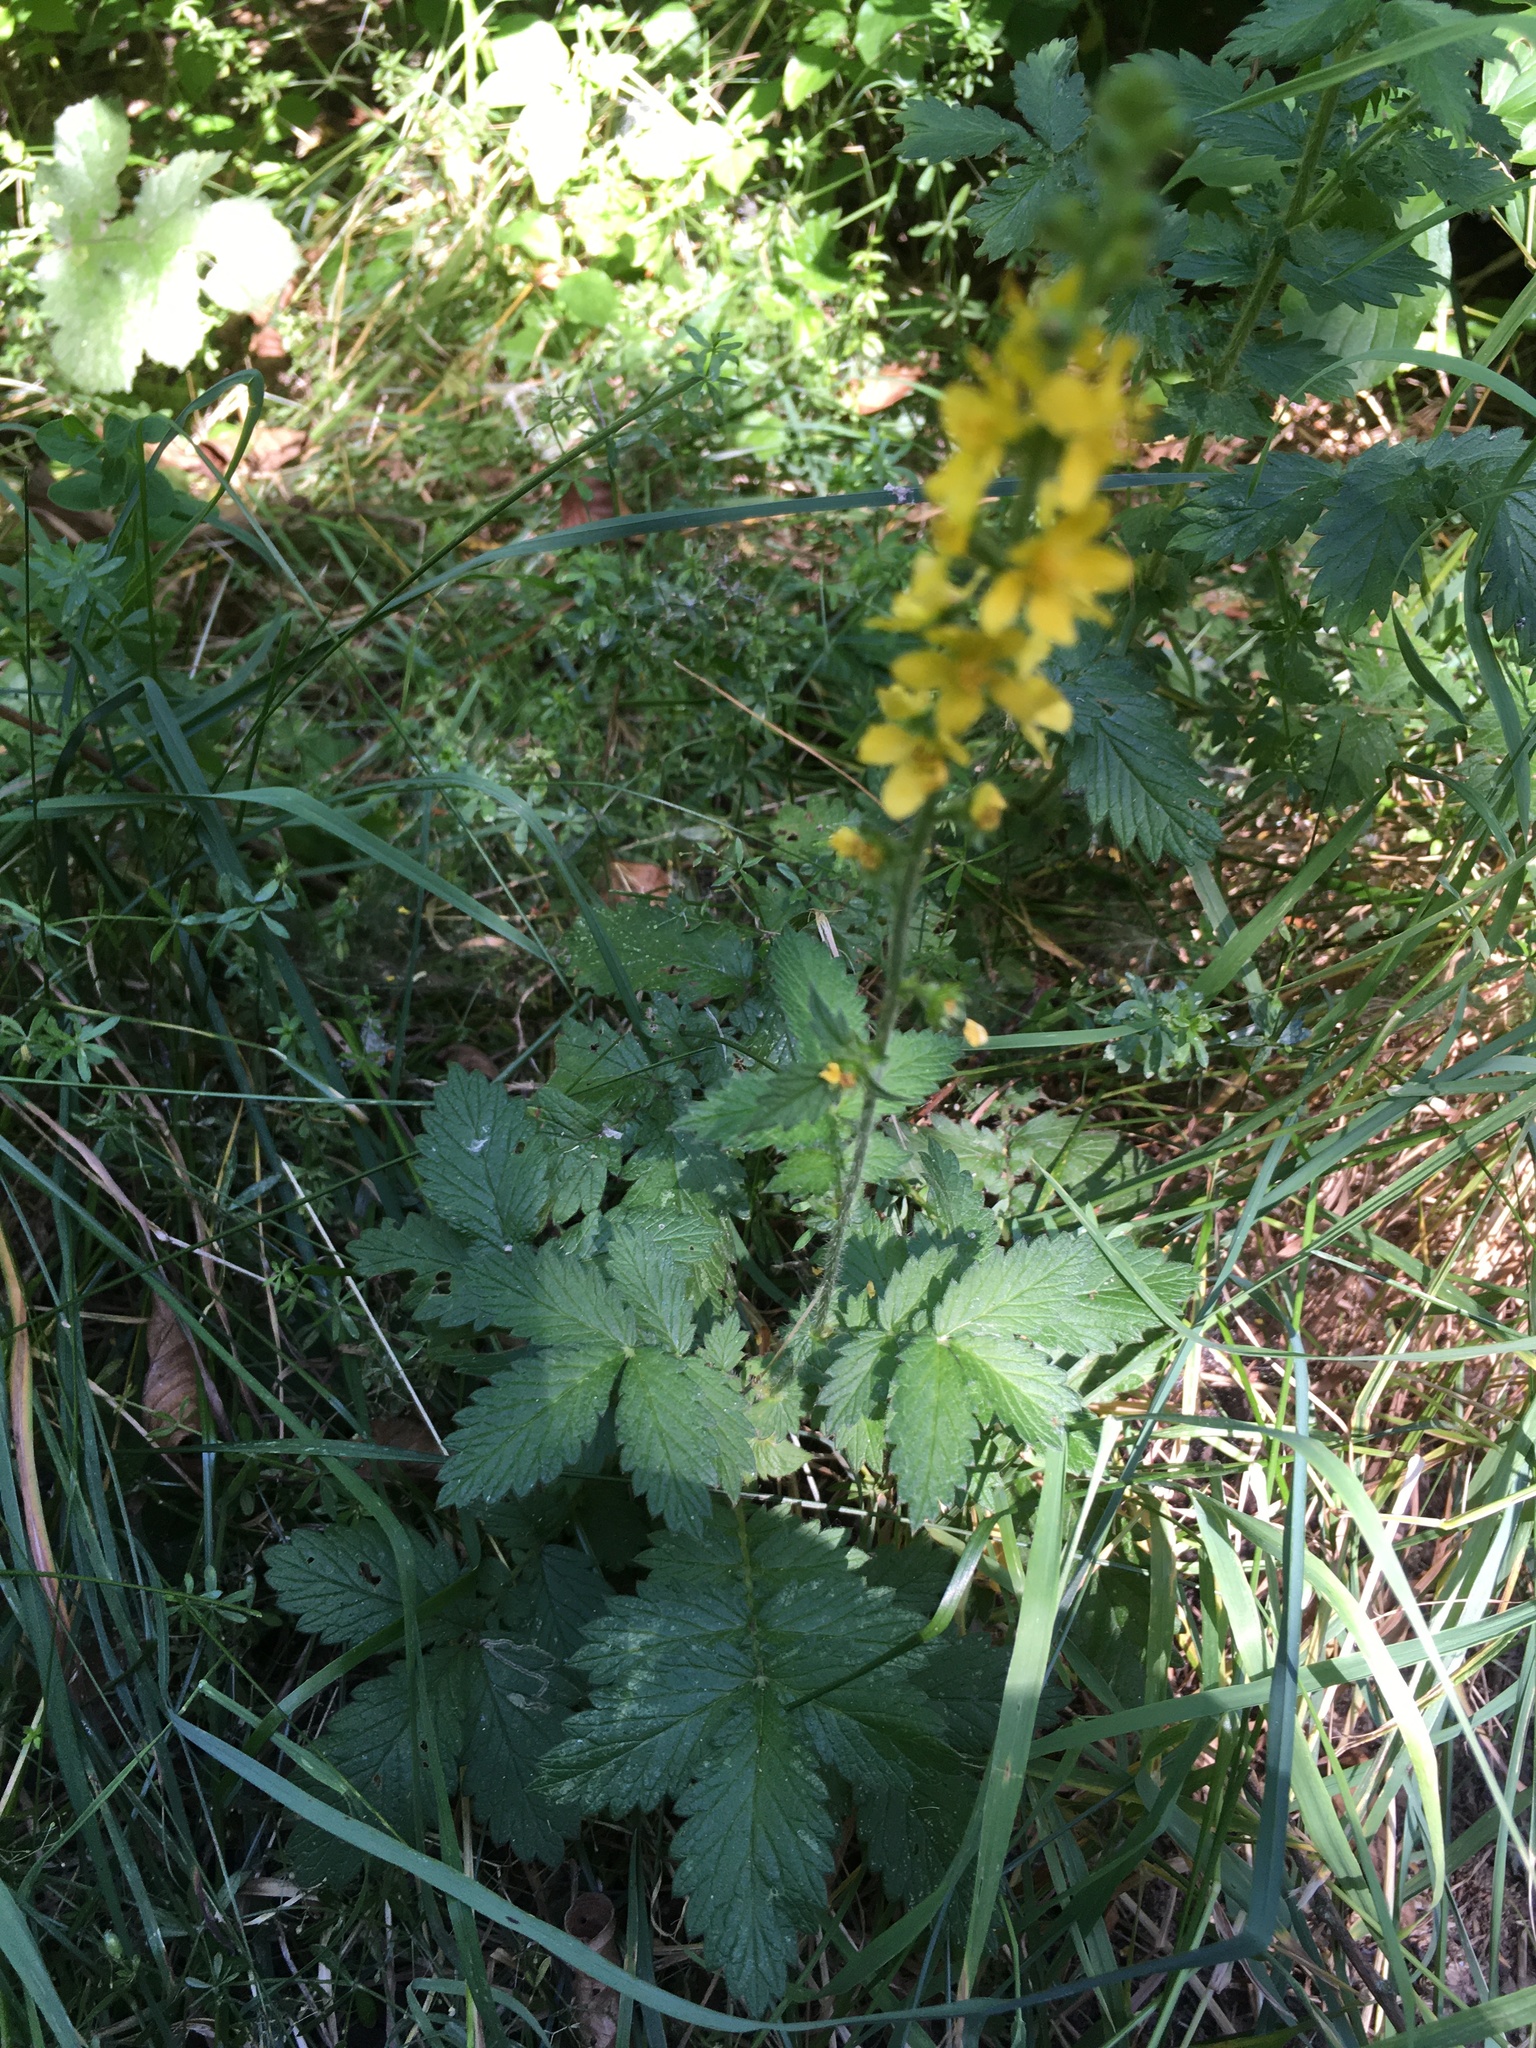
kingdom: Plantae
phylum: Tracheophyta
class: Magnoliopsida
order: Rosales
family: Rosaceae
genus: Agrimonia
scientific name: Agrimonia eupatoria
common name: Agrimony
